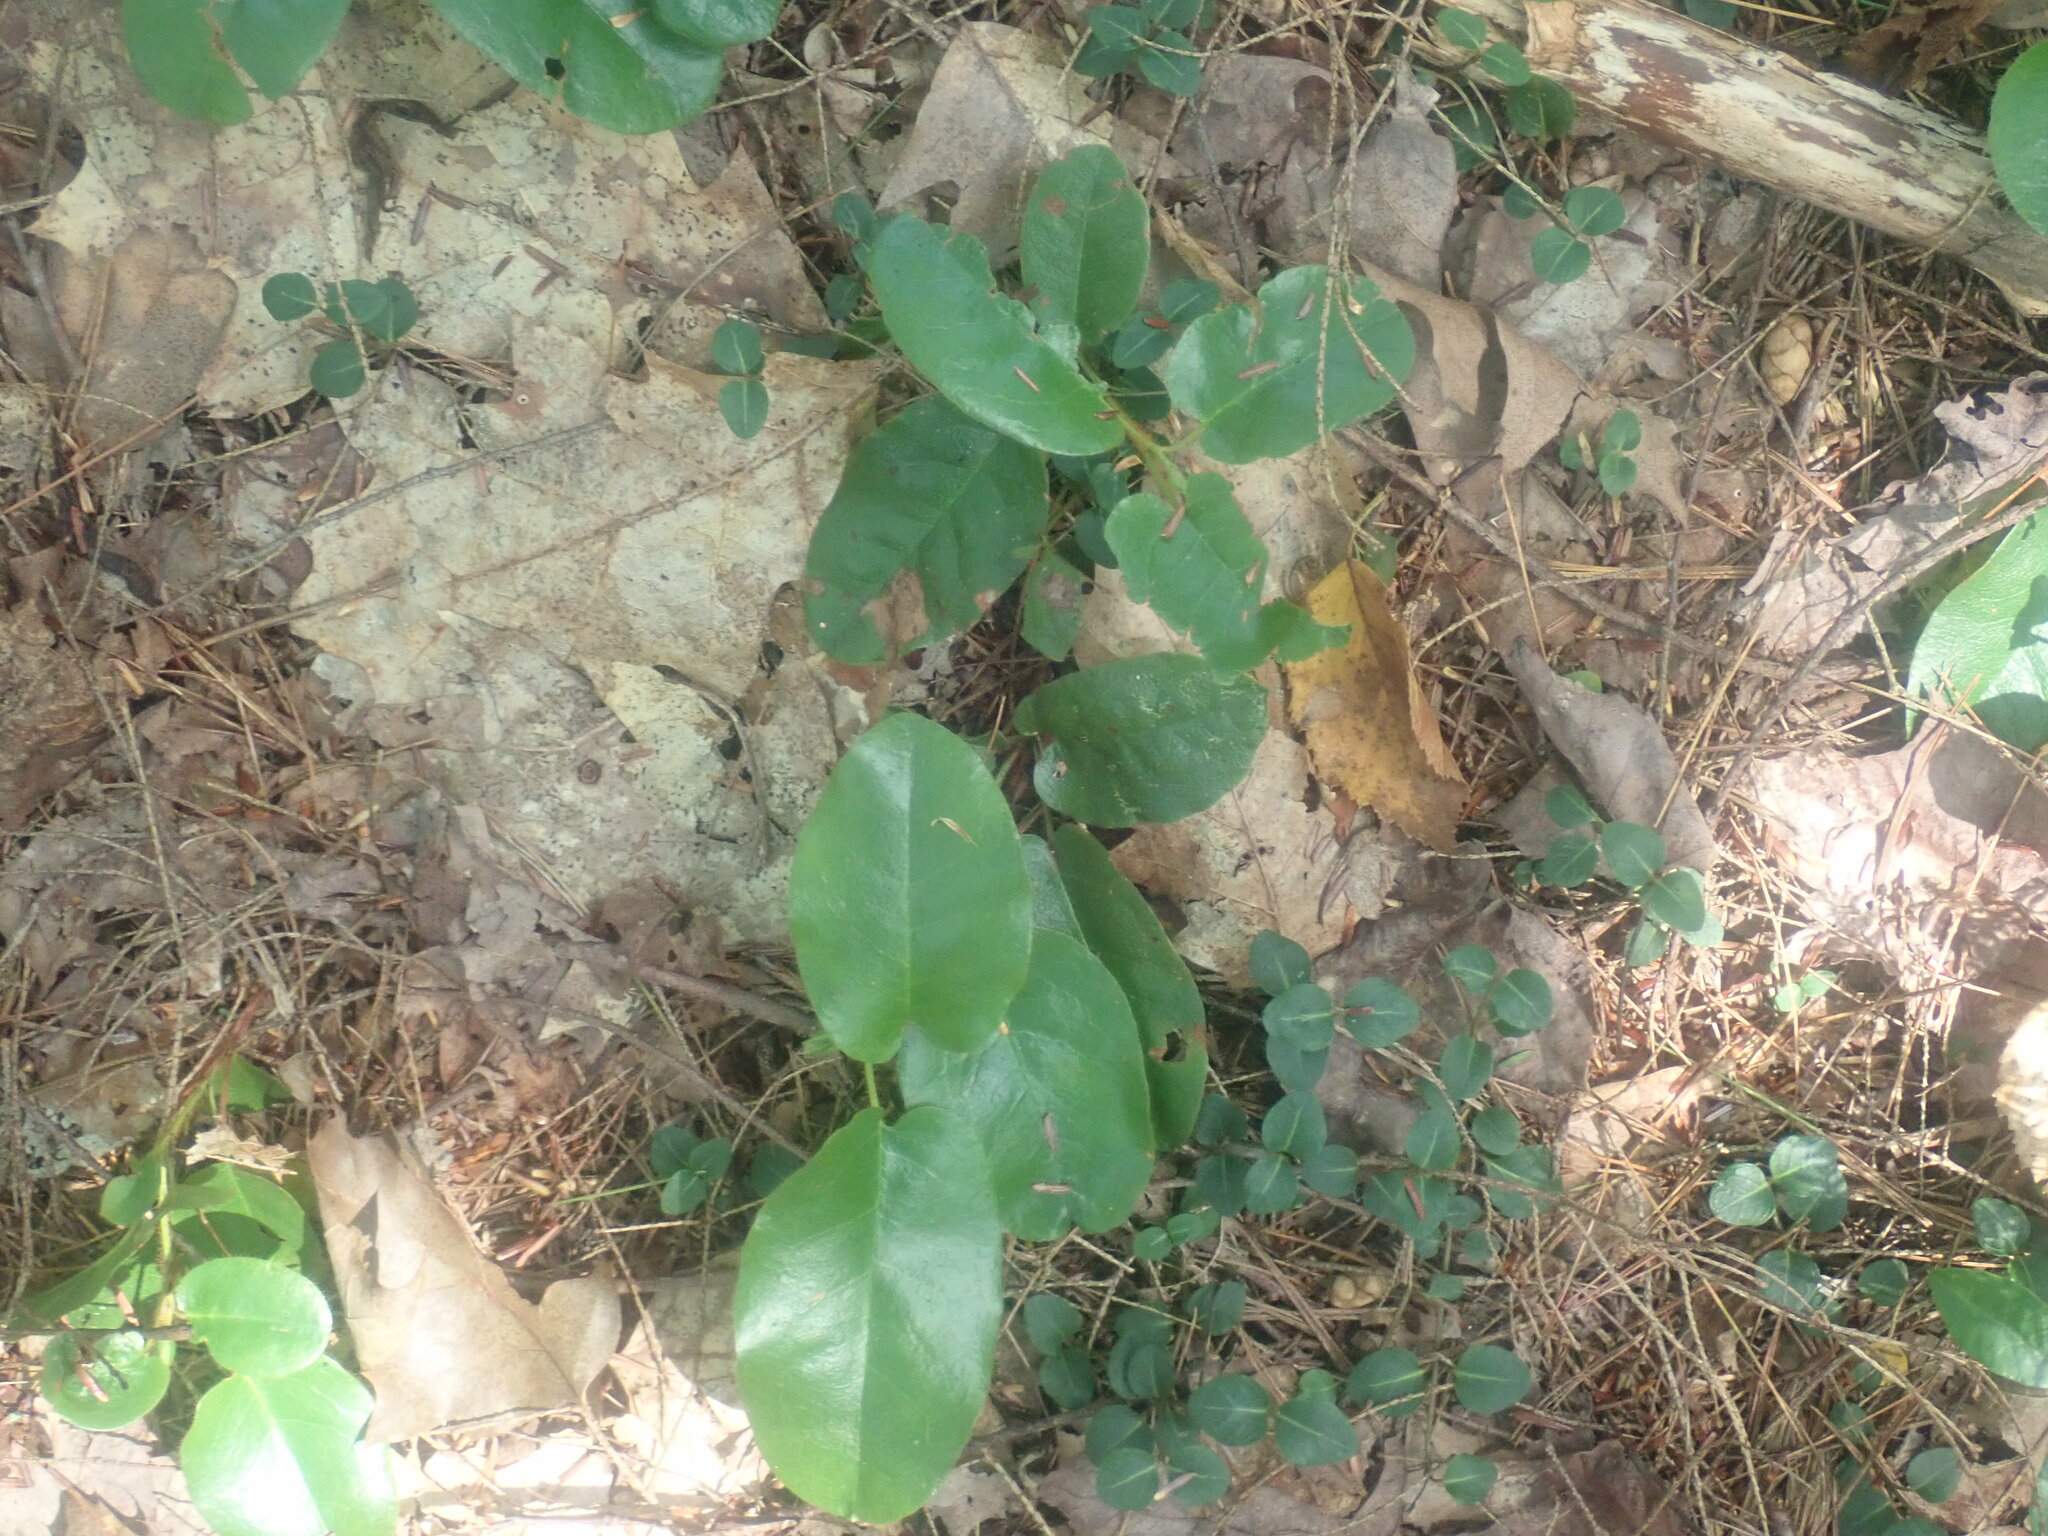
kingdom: Plantae
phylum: Tracheophyta
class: Magnoliopsida
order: Ericales
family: Ericaceae
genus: Epigaea
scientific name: Epigaea repens
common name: Gravelroot
